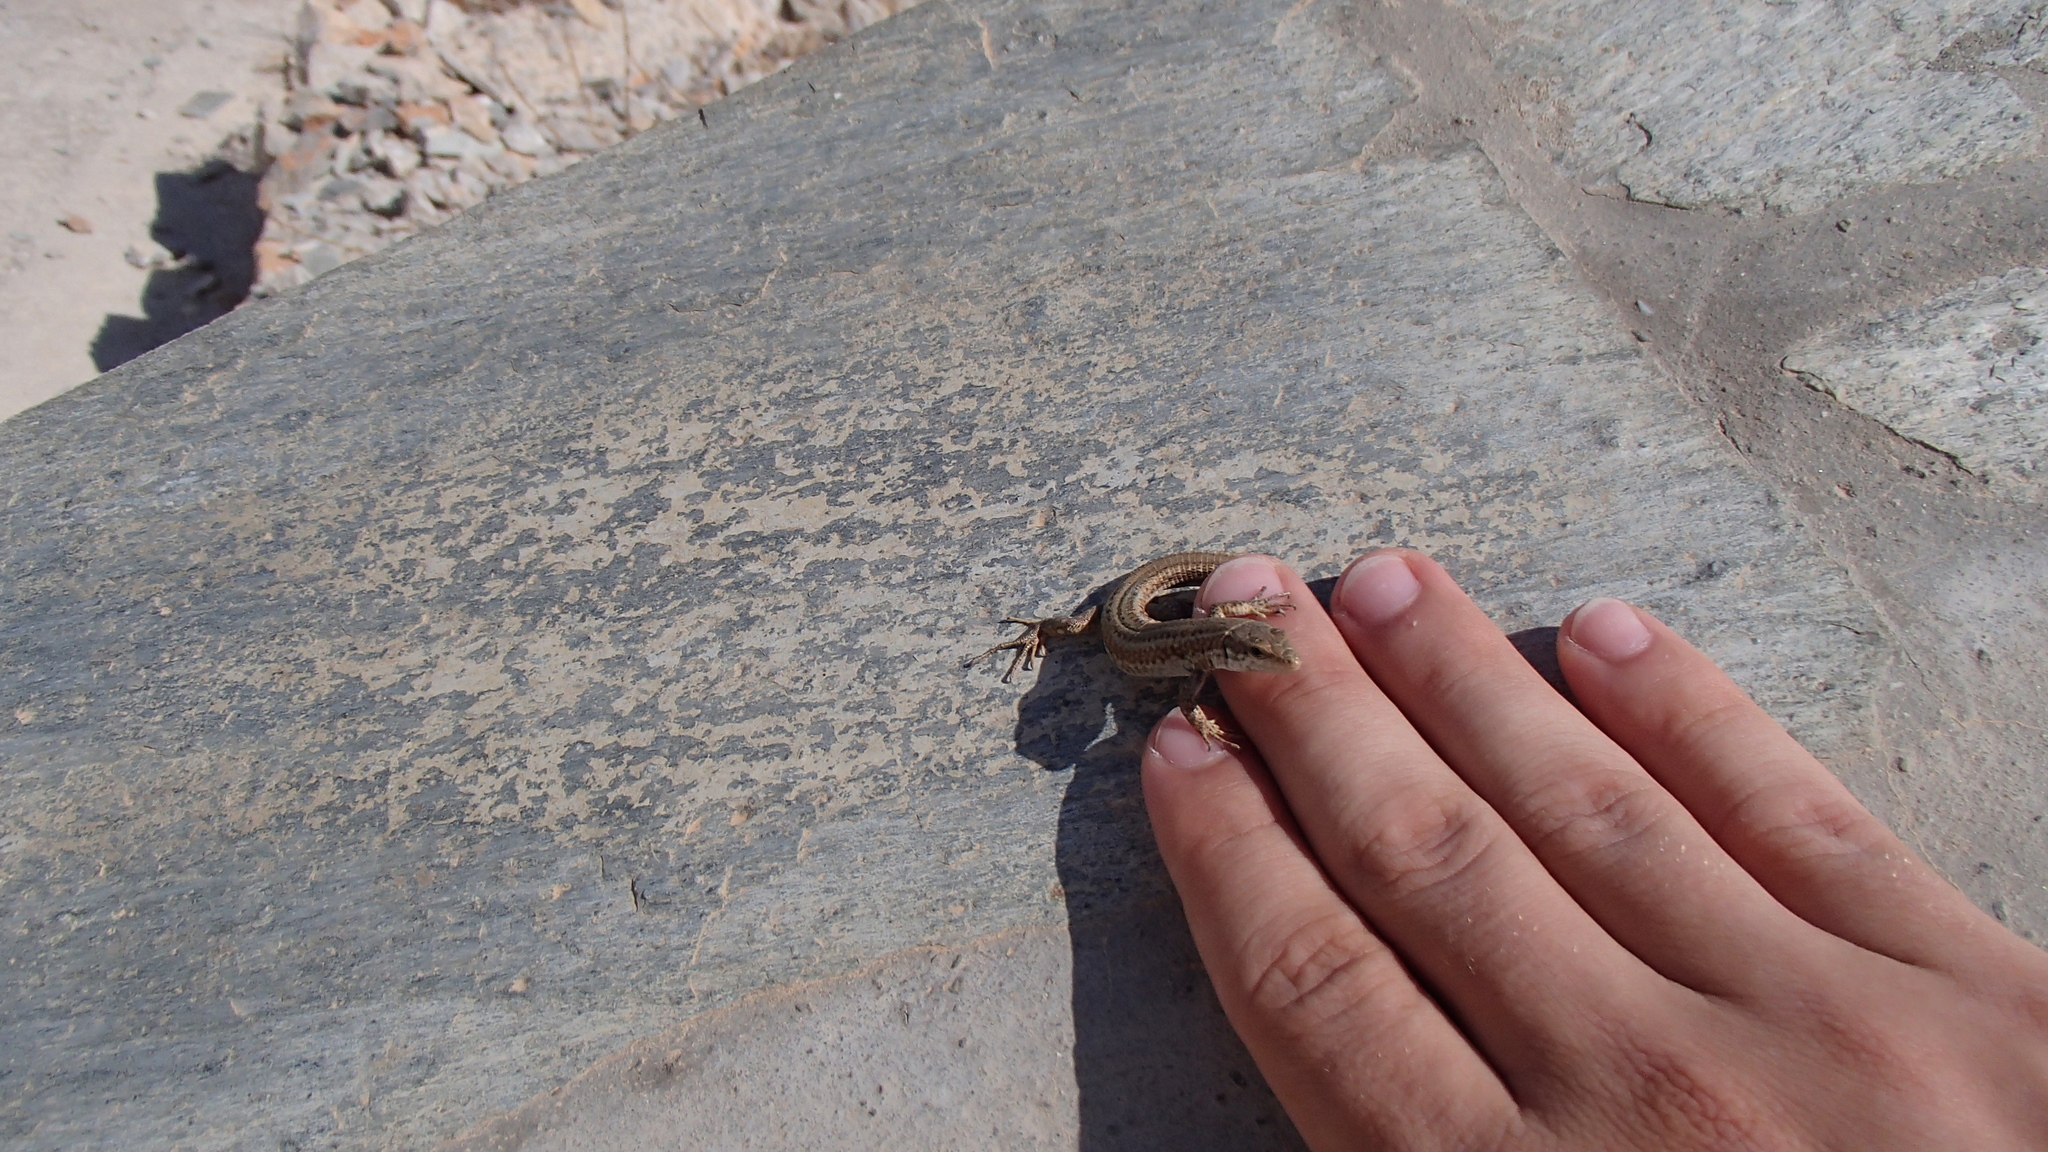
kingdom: Animalia
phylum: Chordata
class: Squamata
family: Lacertidae
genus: Podarcis
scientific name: Podarcis erhardii
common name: Erhard's wall lizard
